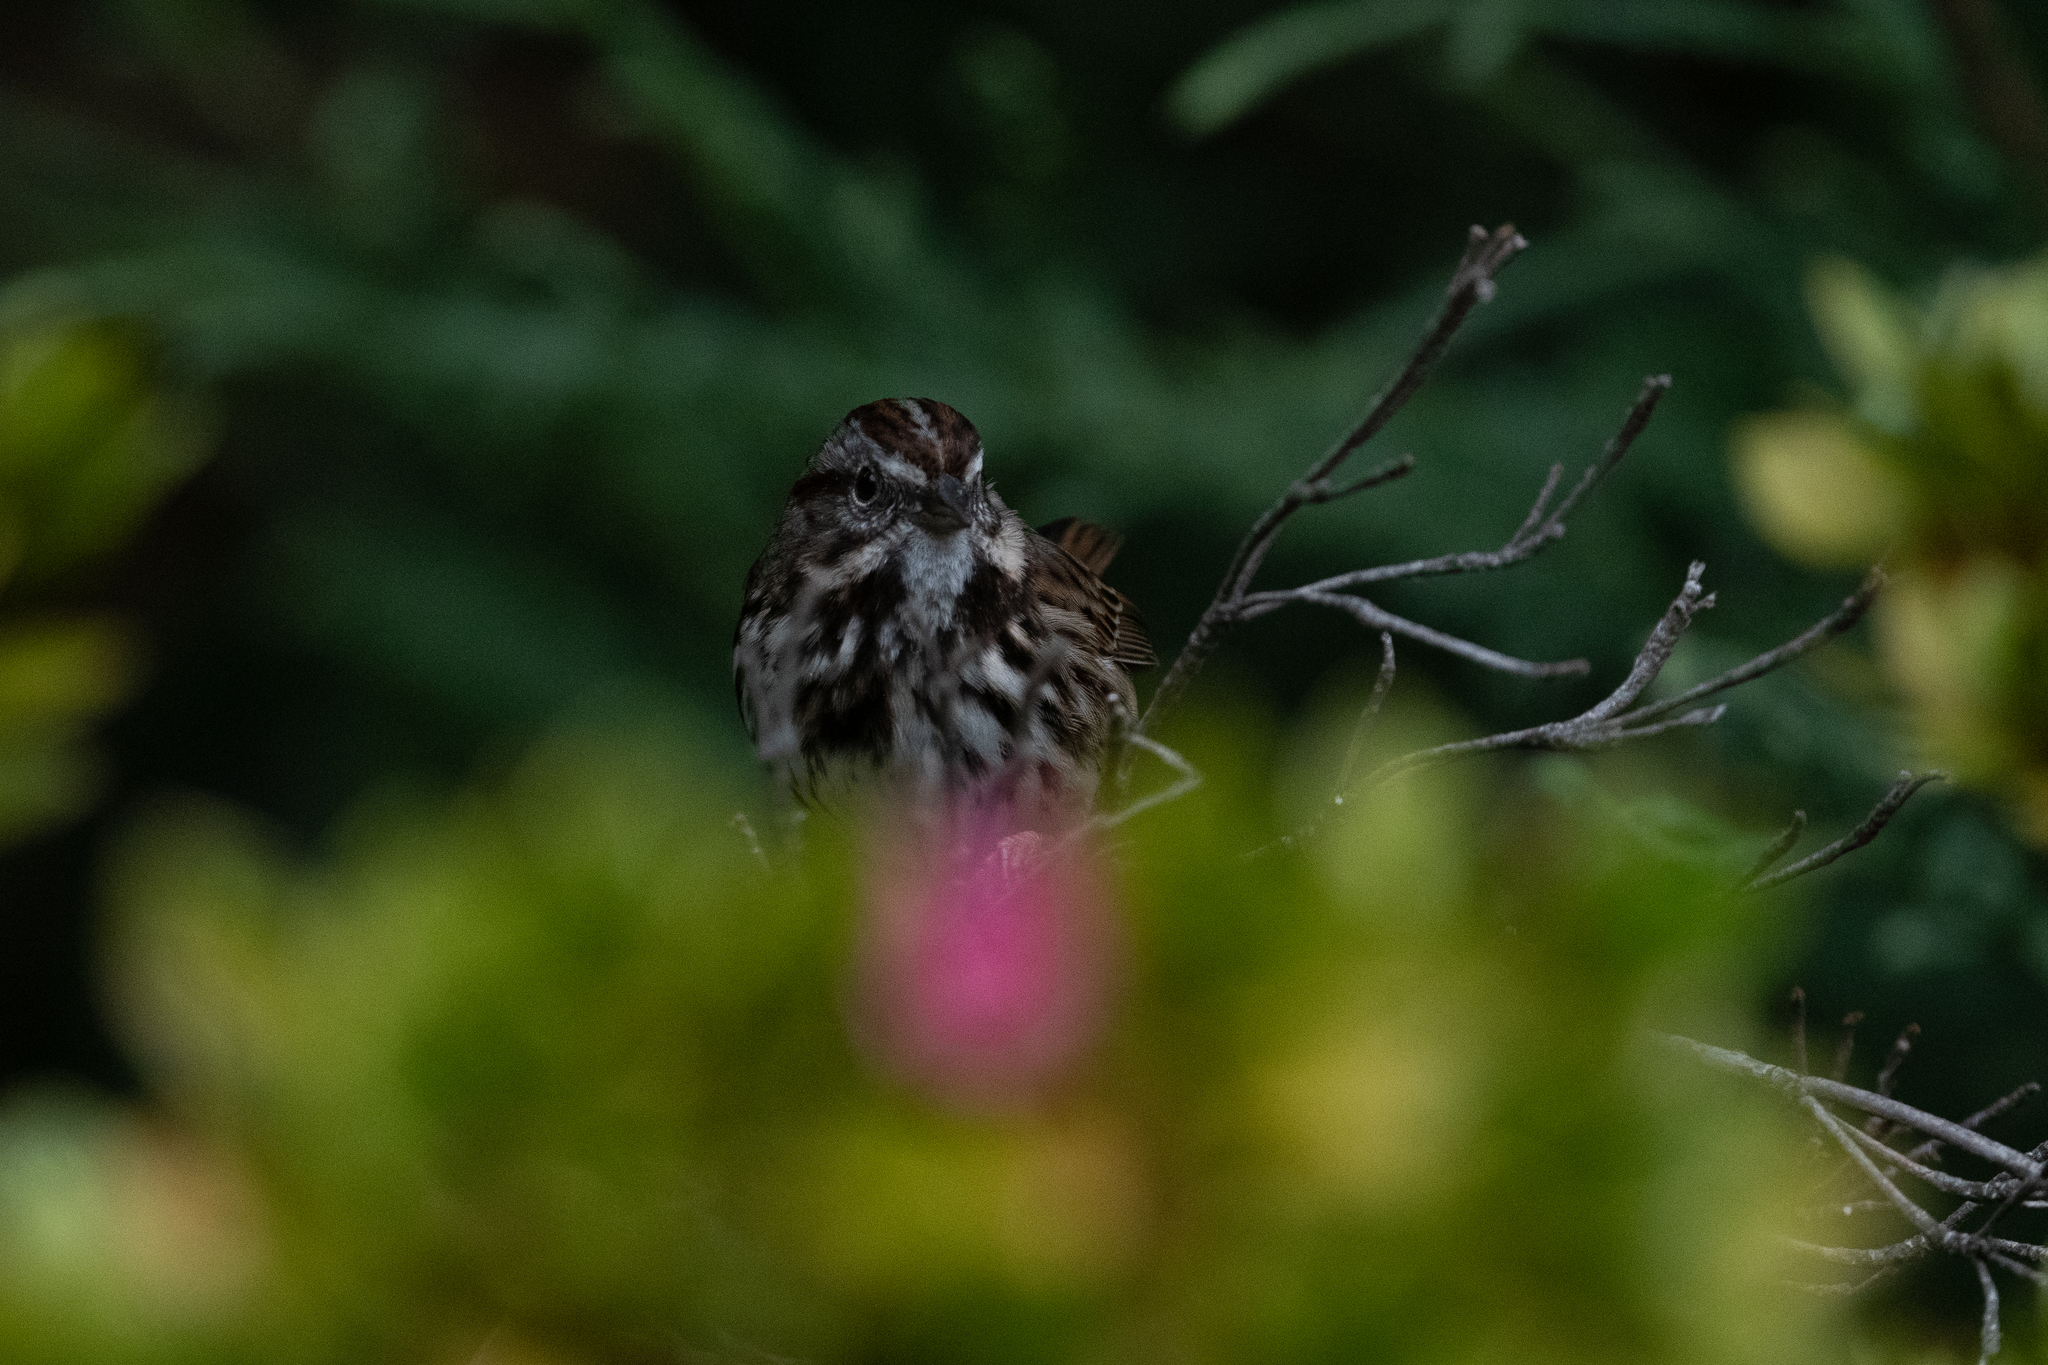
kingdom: Animalia
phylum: Chordata
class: Aves
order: Passeriformes
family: Passerellidae
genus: Melospiza
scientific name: Melospiza melodia
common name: Song sparrow
